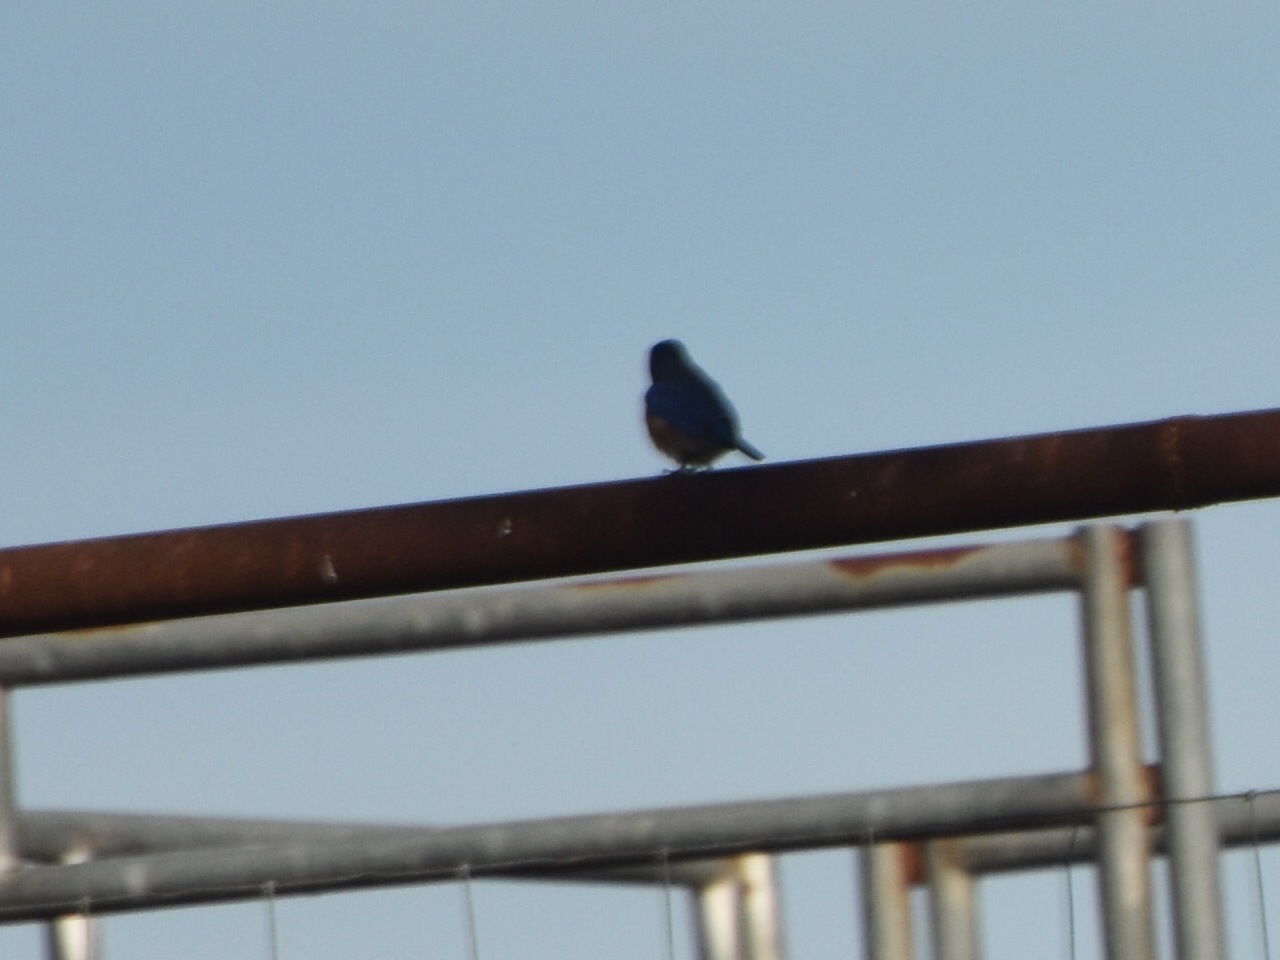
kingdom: Animalia
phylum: Chordata
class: Aves
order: Passeriformes
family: Turdidae
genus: Sialia
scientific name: Sialia sialis
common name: Eastern bluebird
